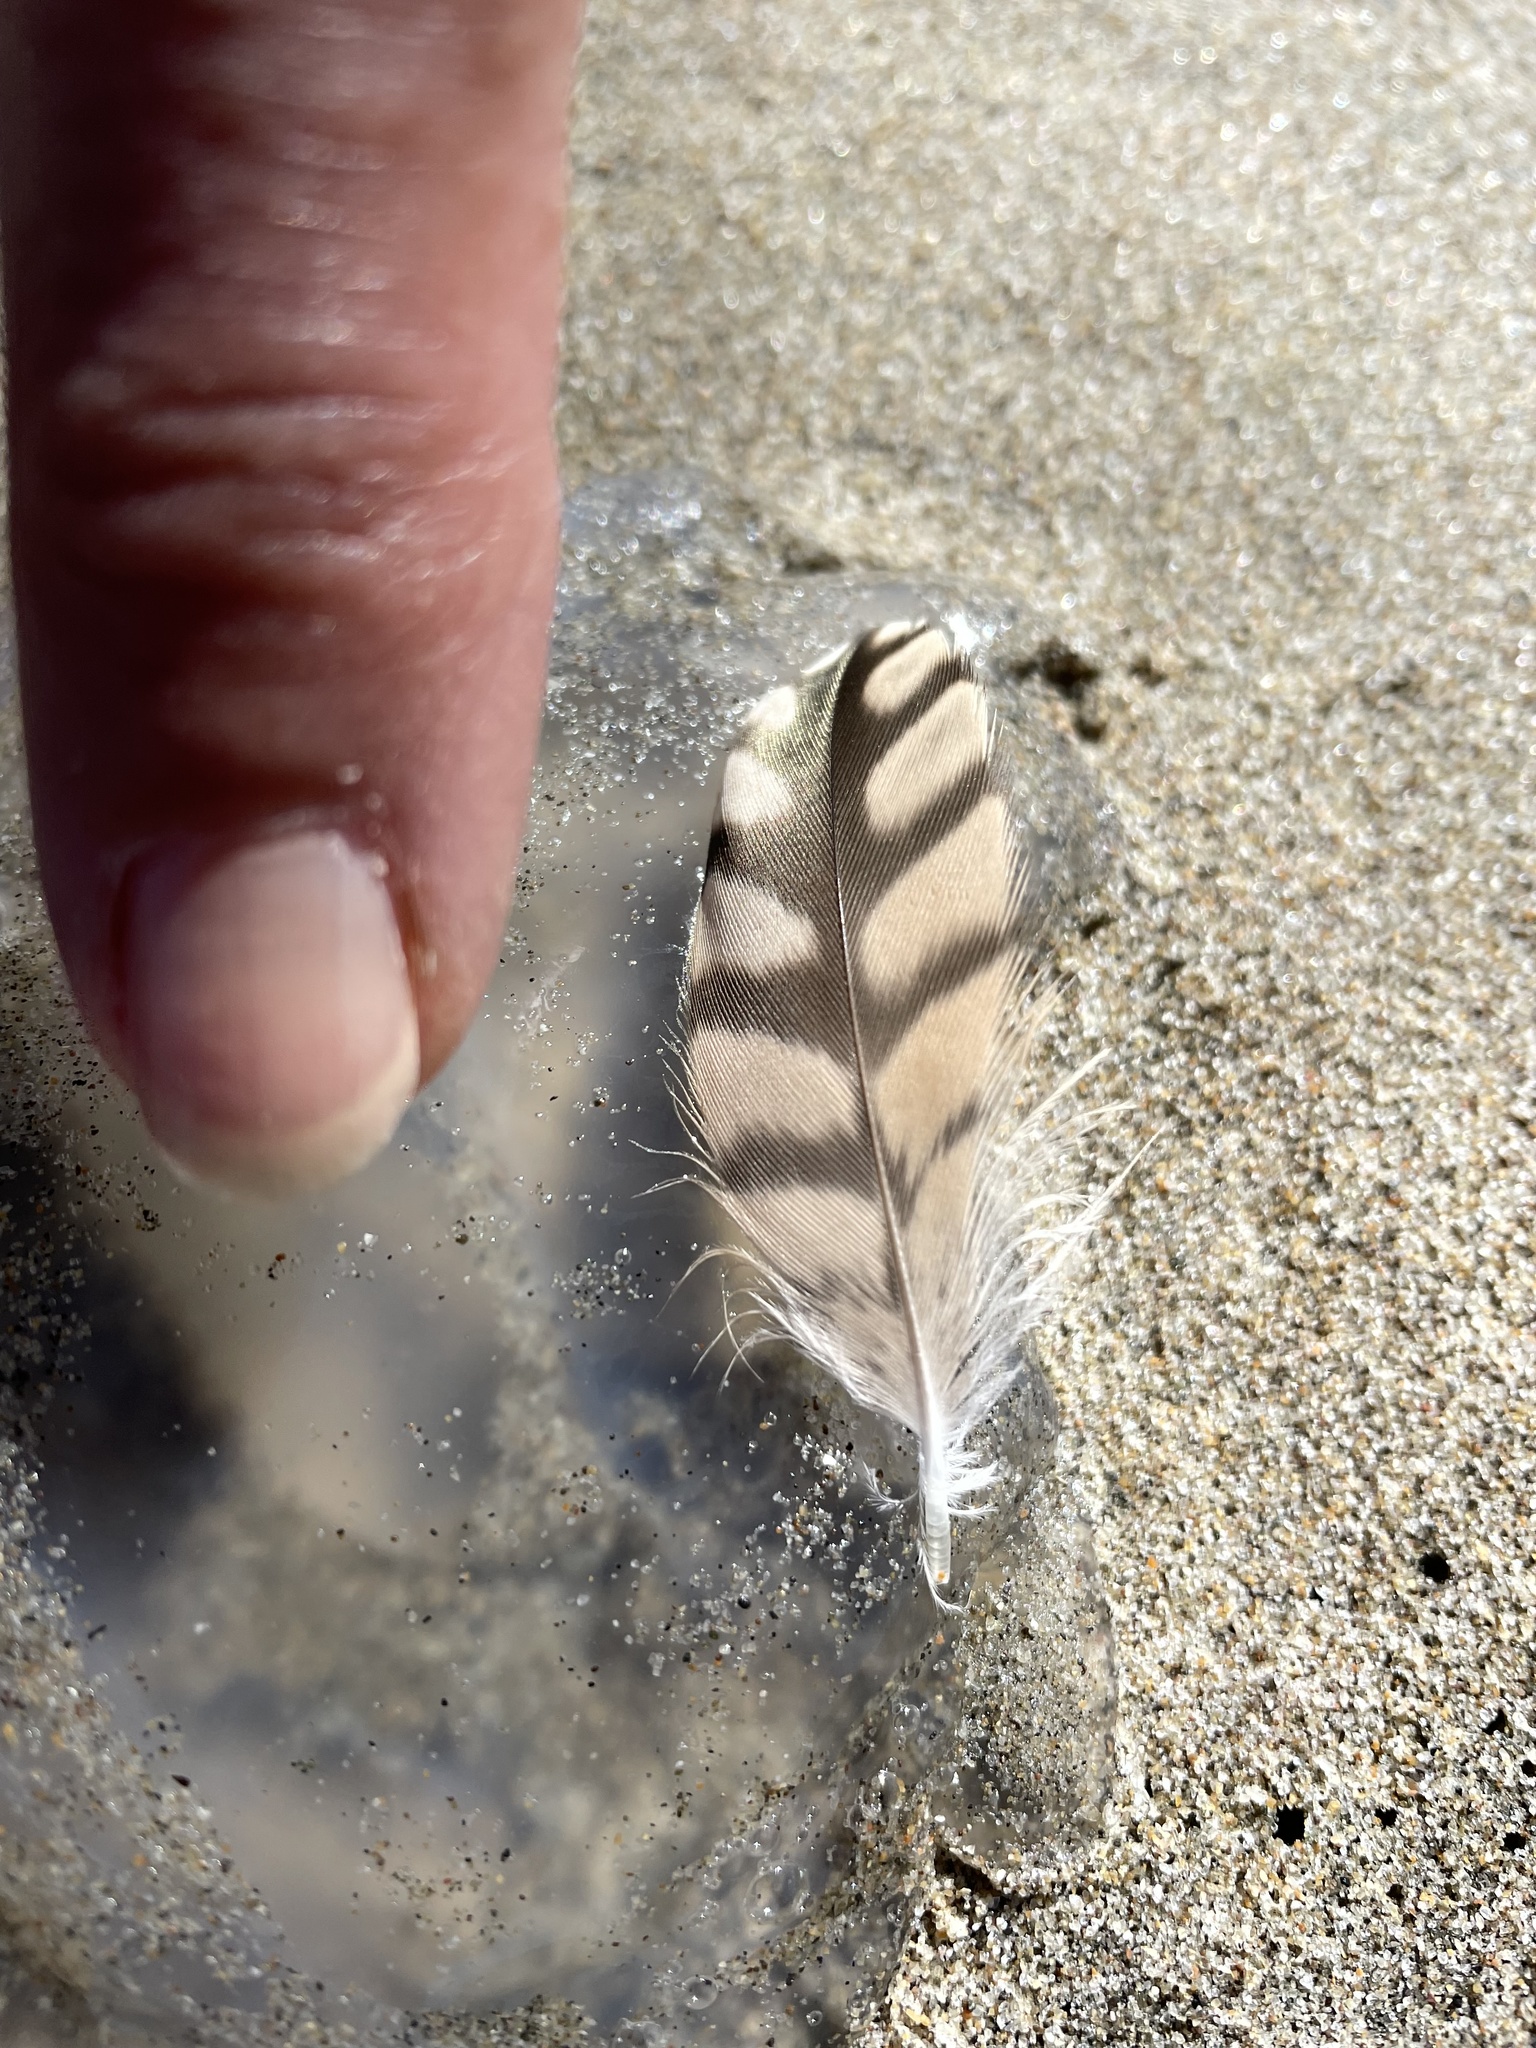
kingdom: Animalia
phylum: Chordata
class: Aves
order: Charadriiformes
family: Scolopacidae
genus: Numenius
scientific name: Numenius americanus
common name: Long-billed curlew
